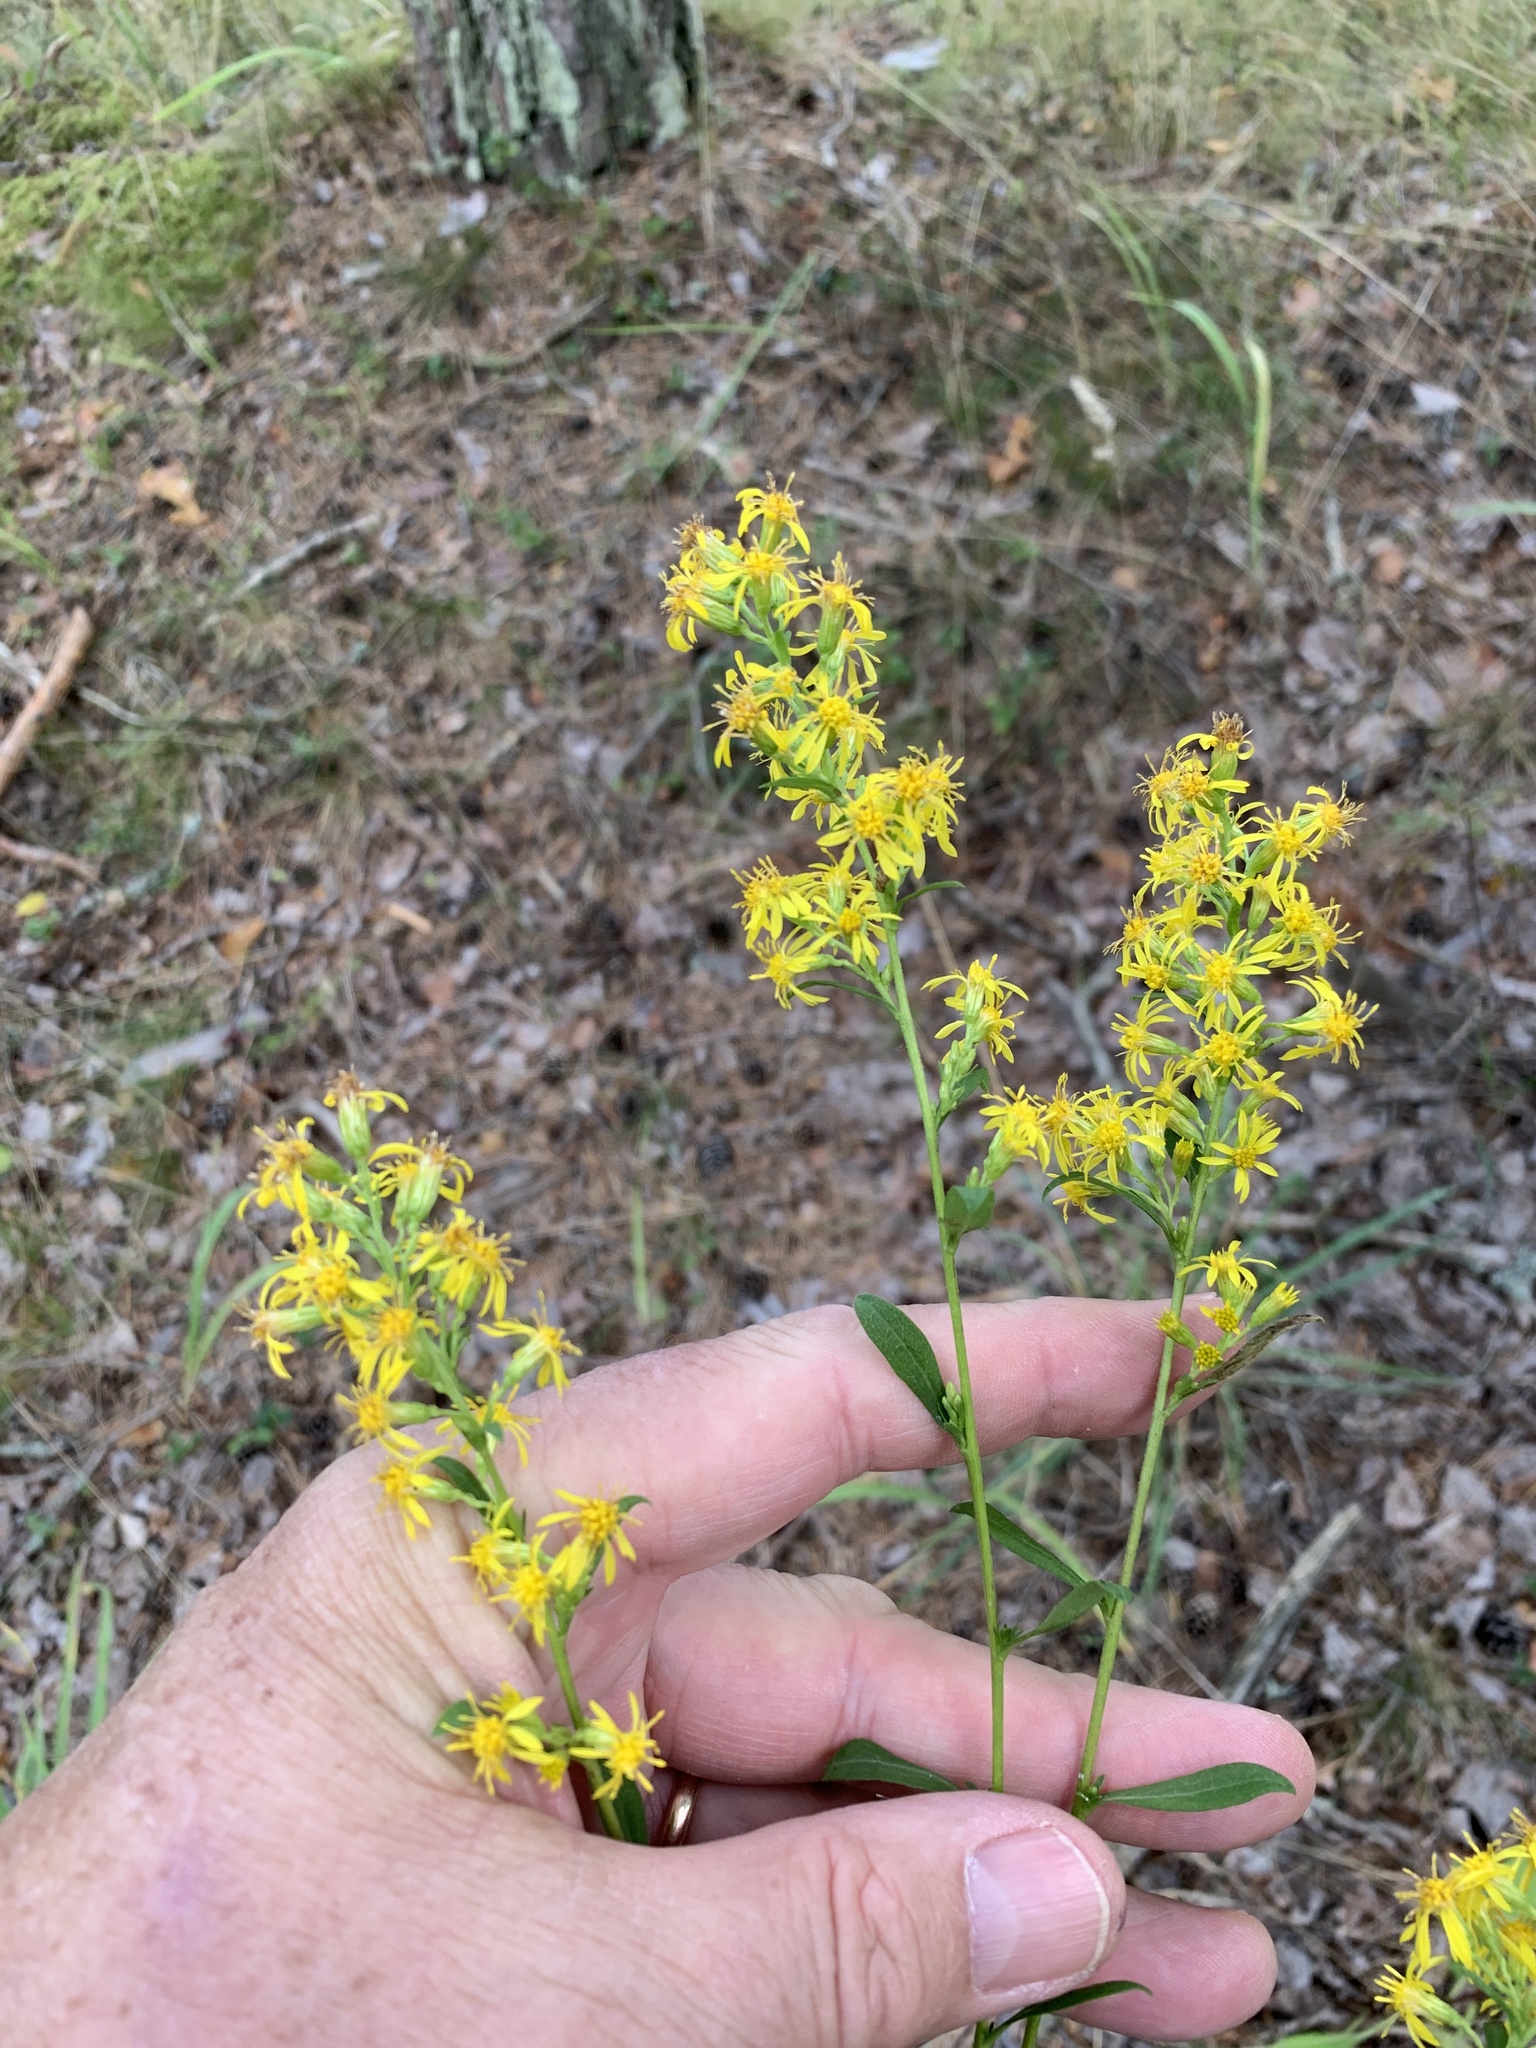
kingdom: Plantae
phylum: Tracheophyta
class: Magnoliopsida
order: Asterales
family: Asteraceae
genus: Solidago
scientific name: Solidago virgaurea
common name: Goldenrod
